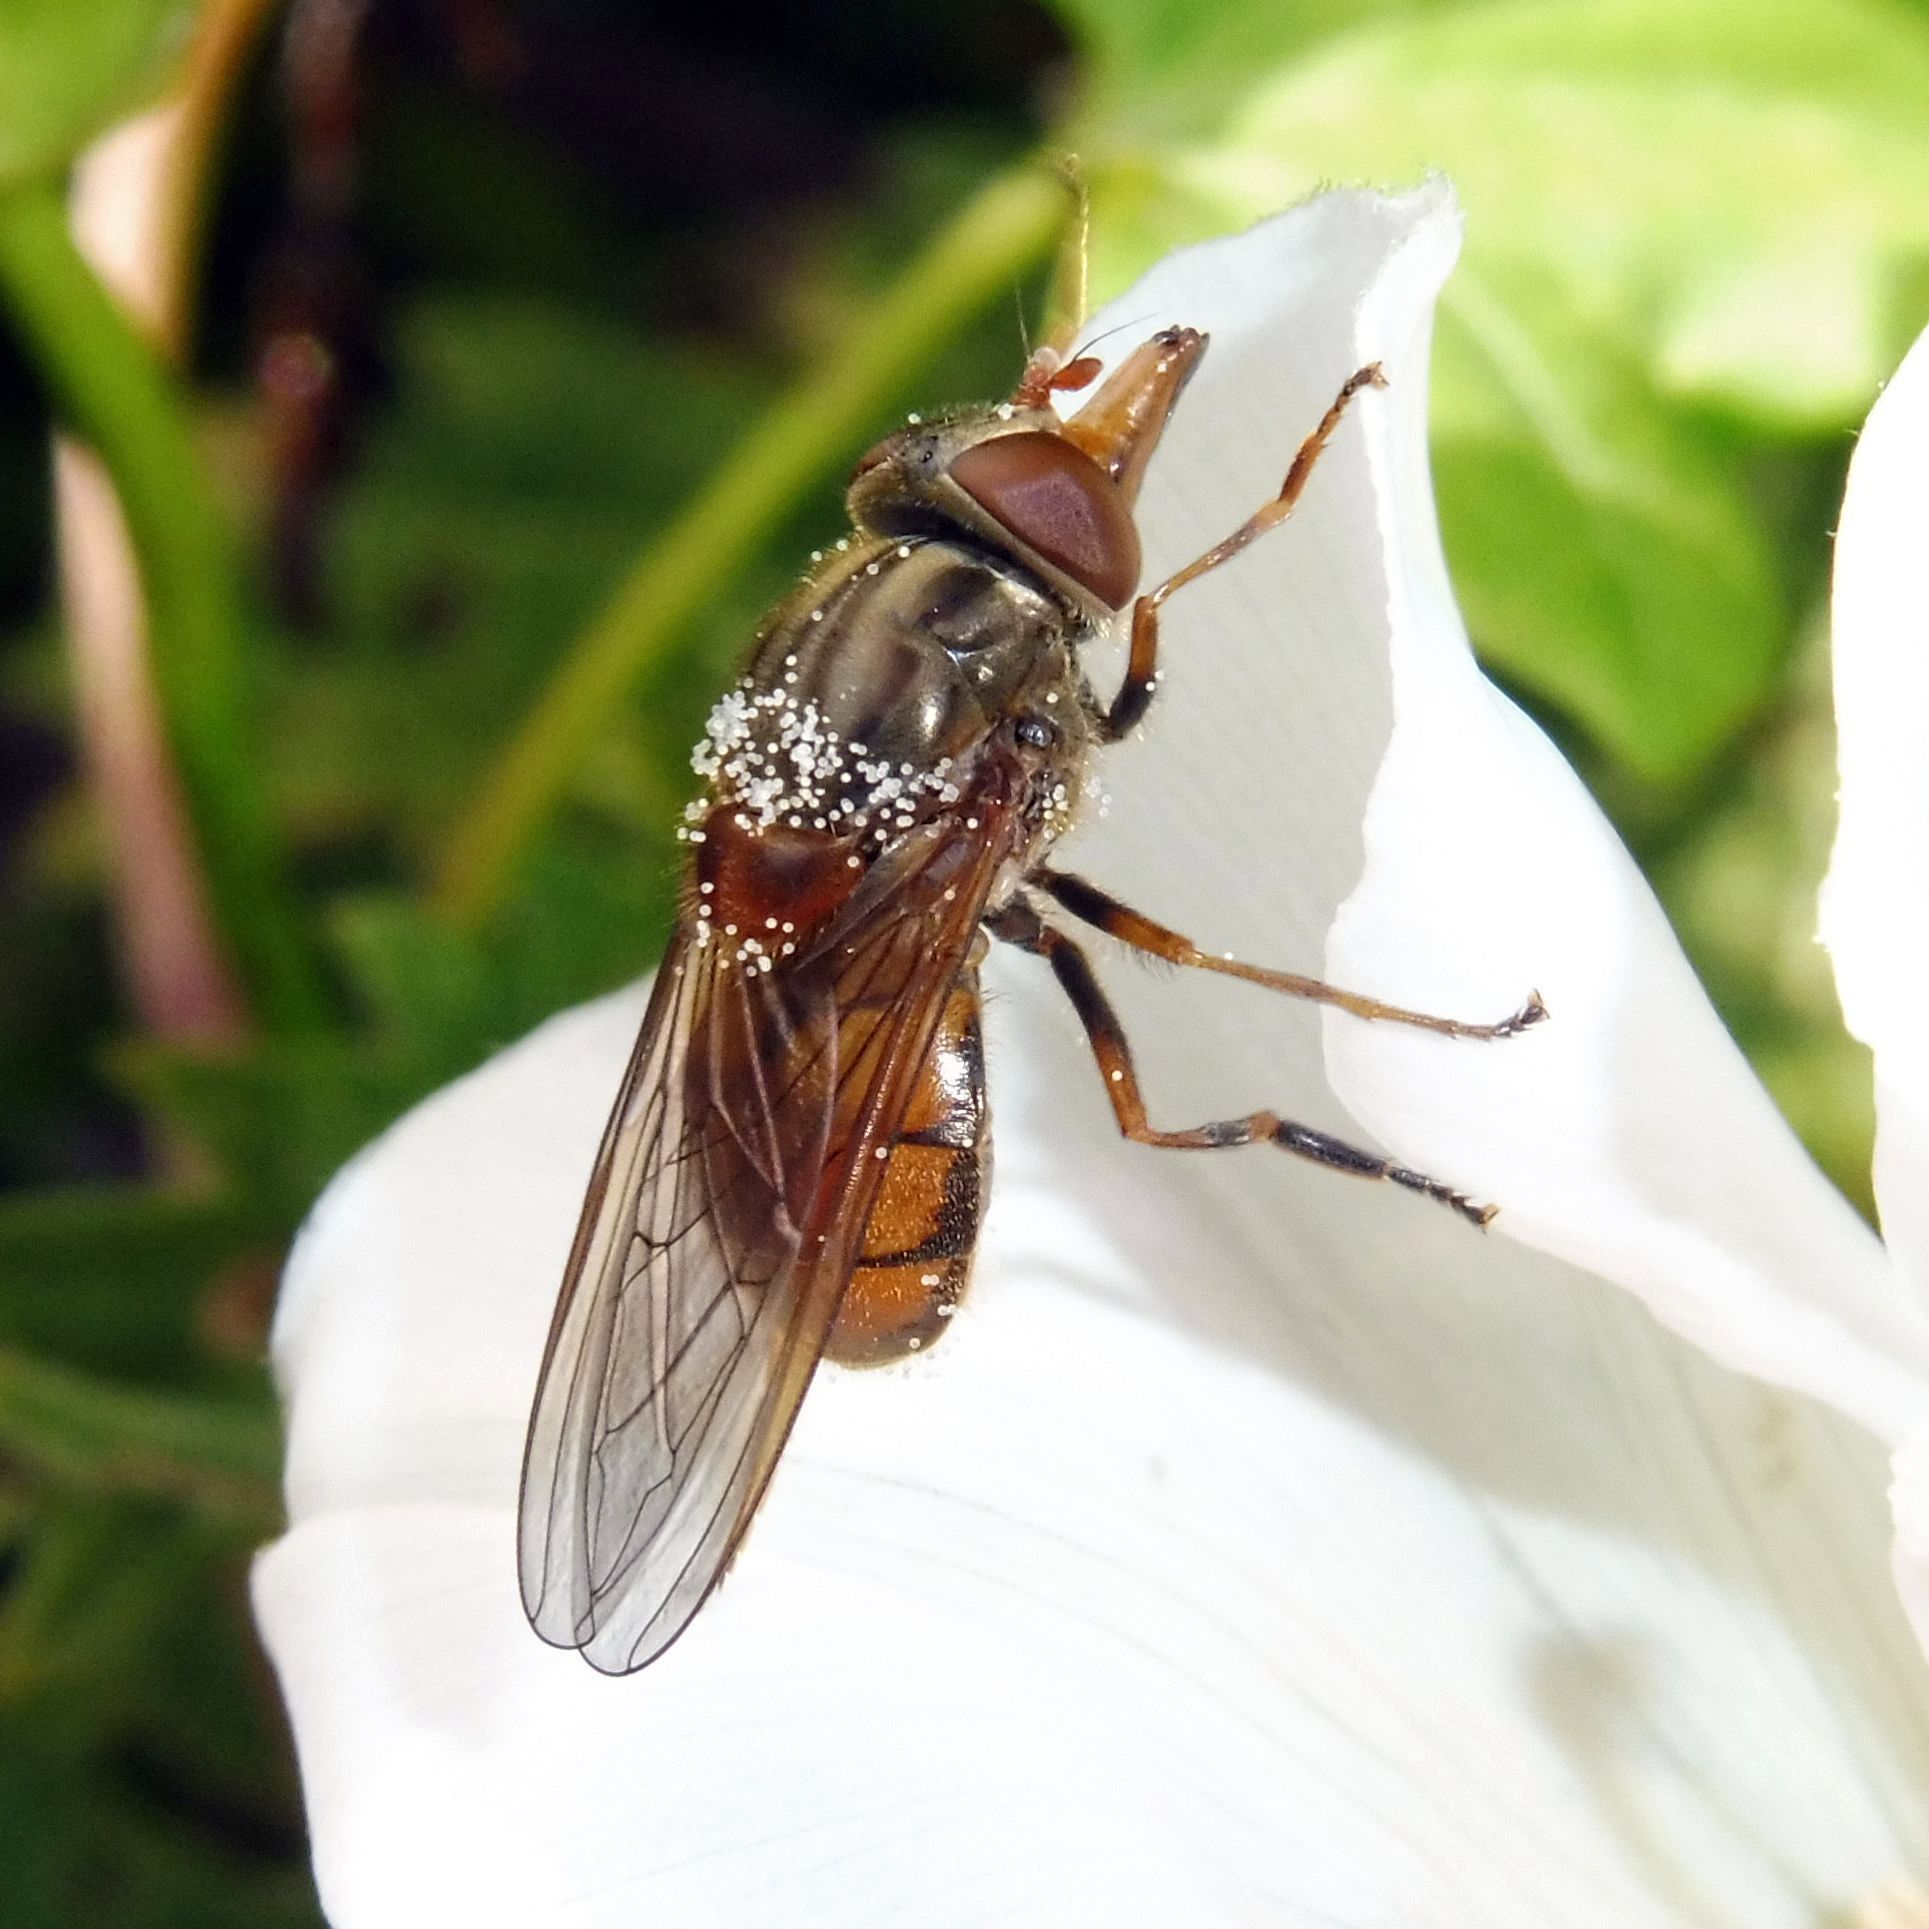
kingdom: Animalia
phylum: Arthropoda
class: Insecta
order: Diptera
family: Syrphidae
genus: Rhingia
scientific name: Rhingia campestris
